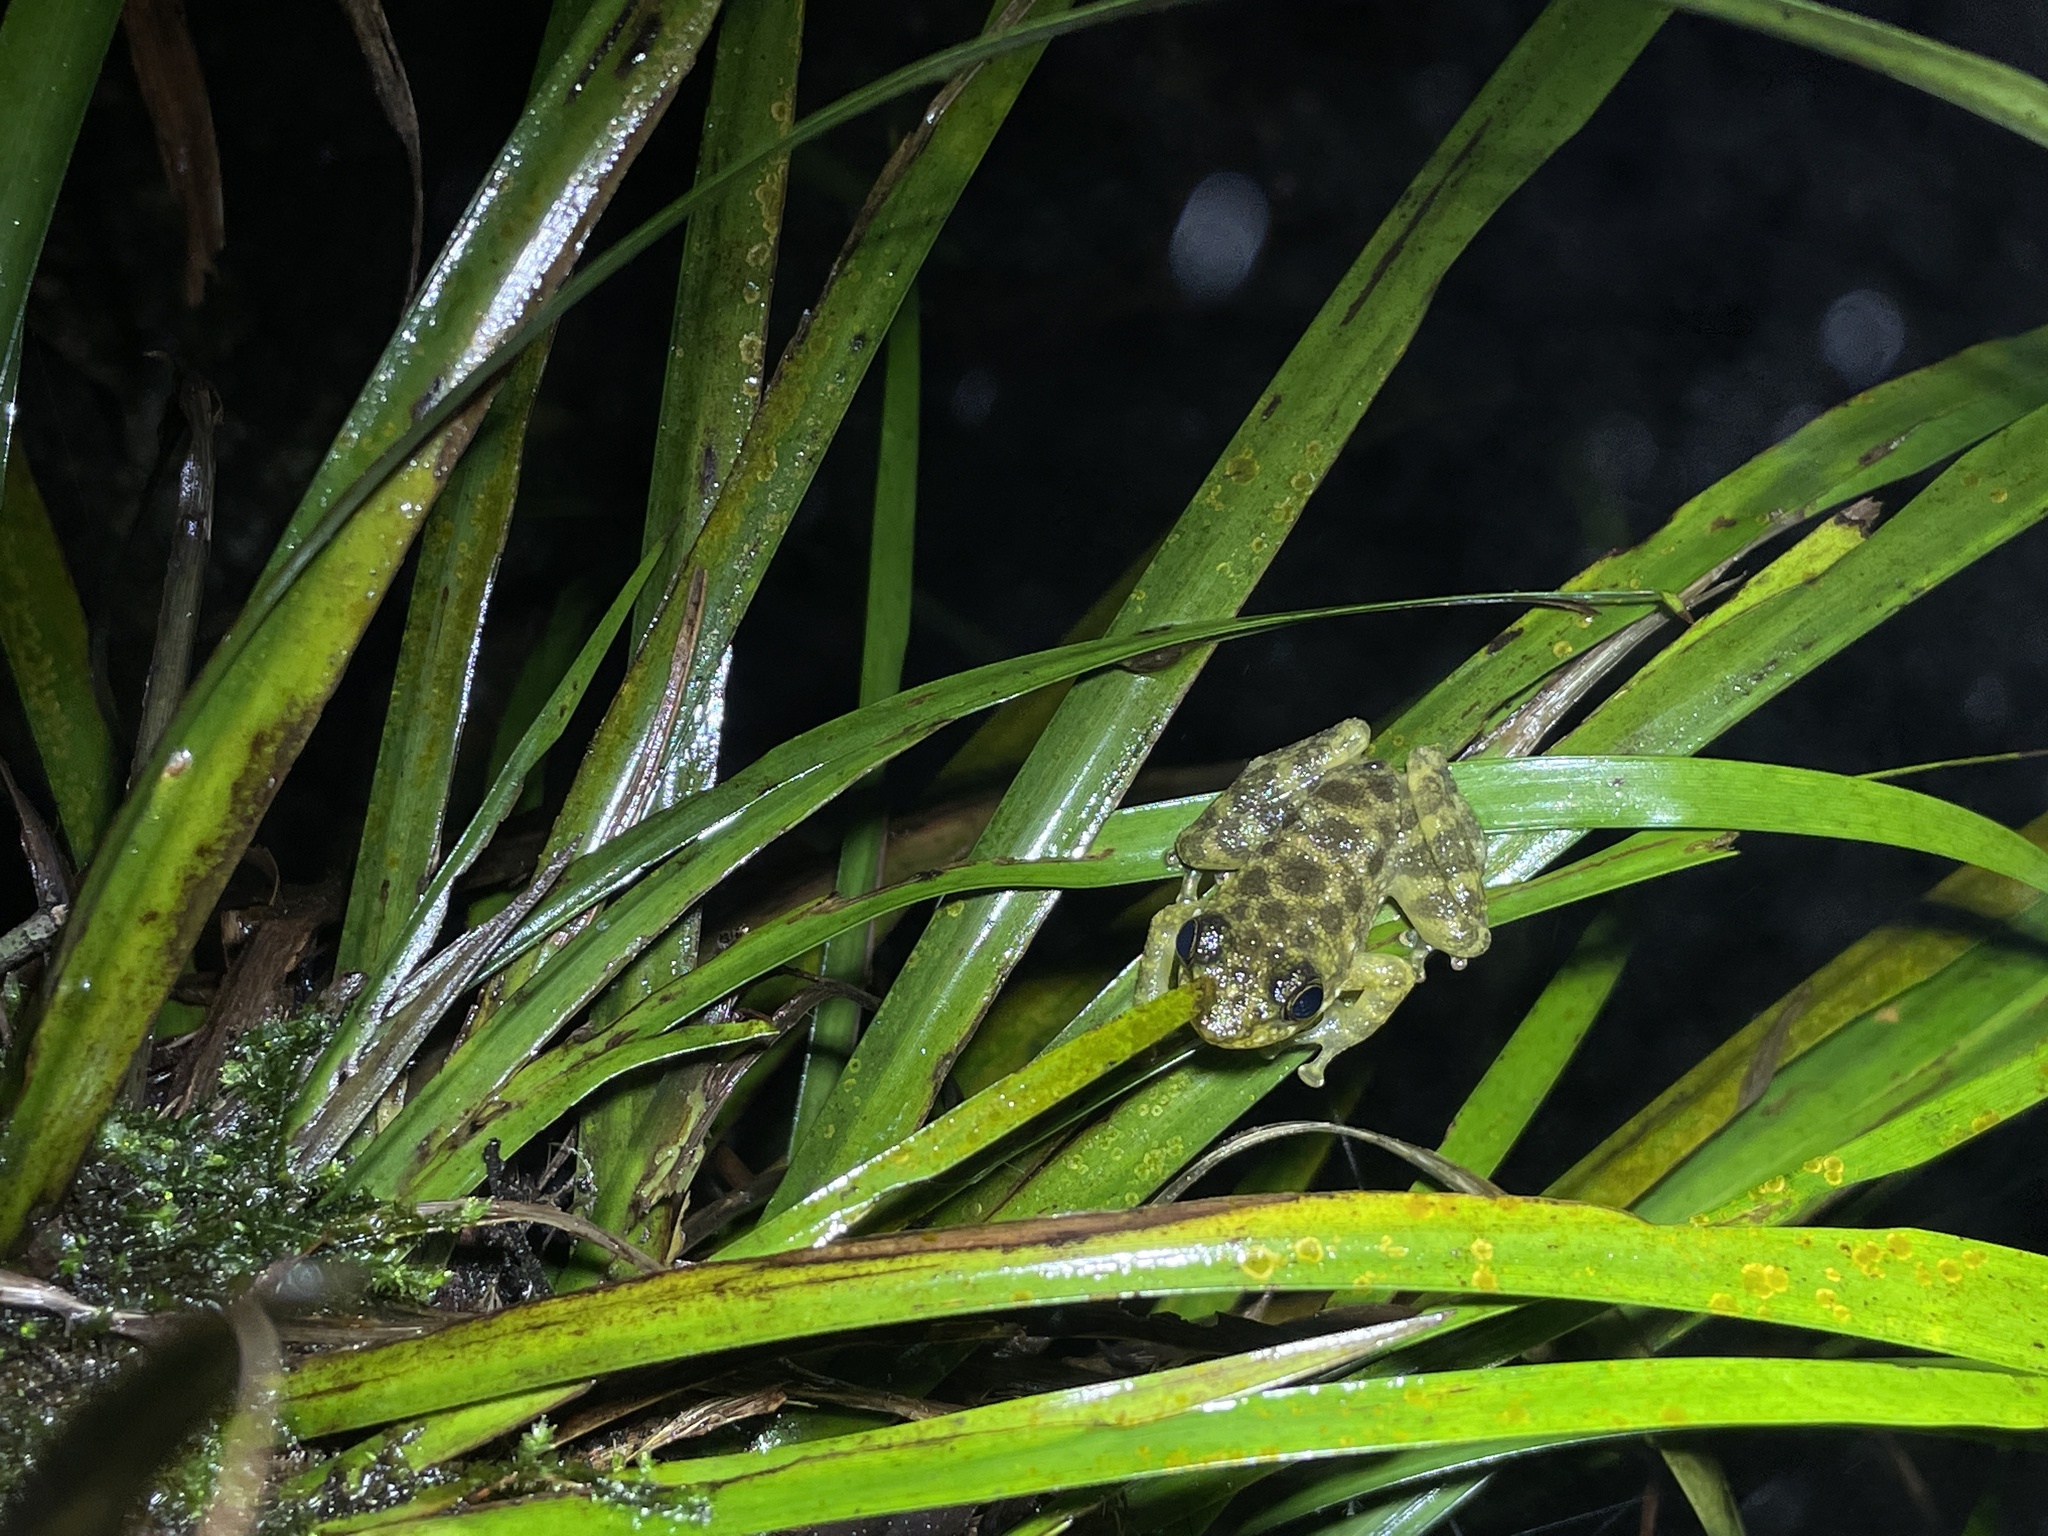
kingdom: Animalia
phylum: Chordata
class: Amphibia
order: Anura
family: Ranidae
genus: Amolops
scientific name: Amolops hongkongensis
